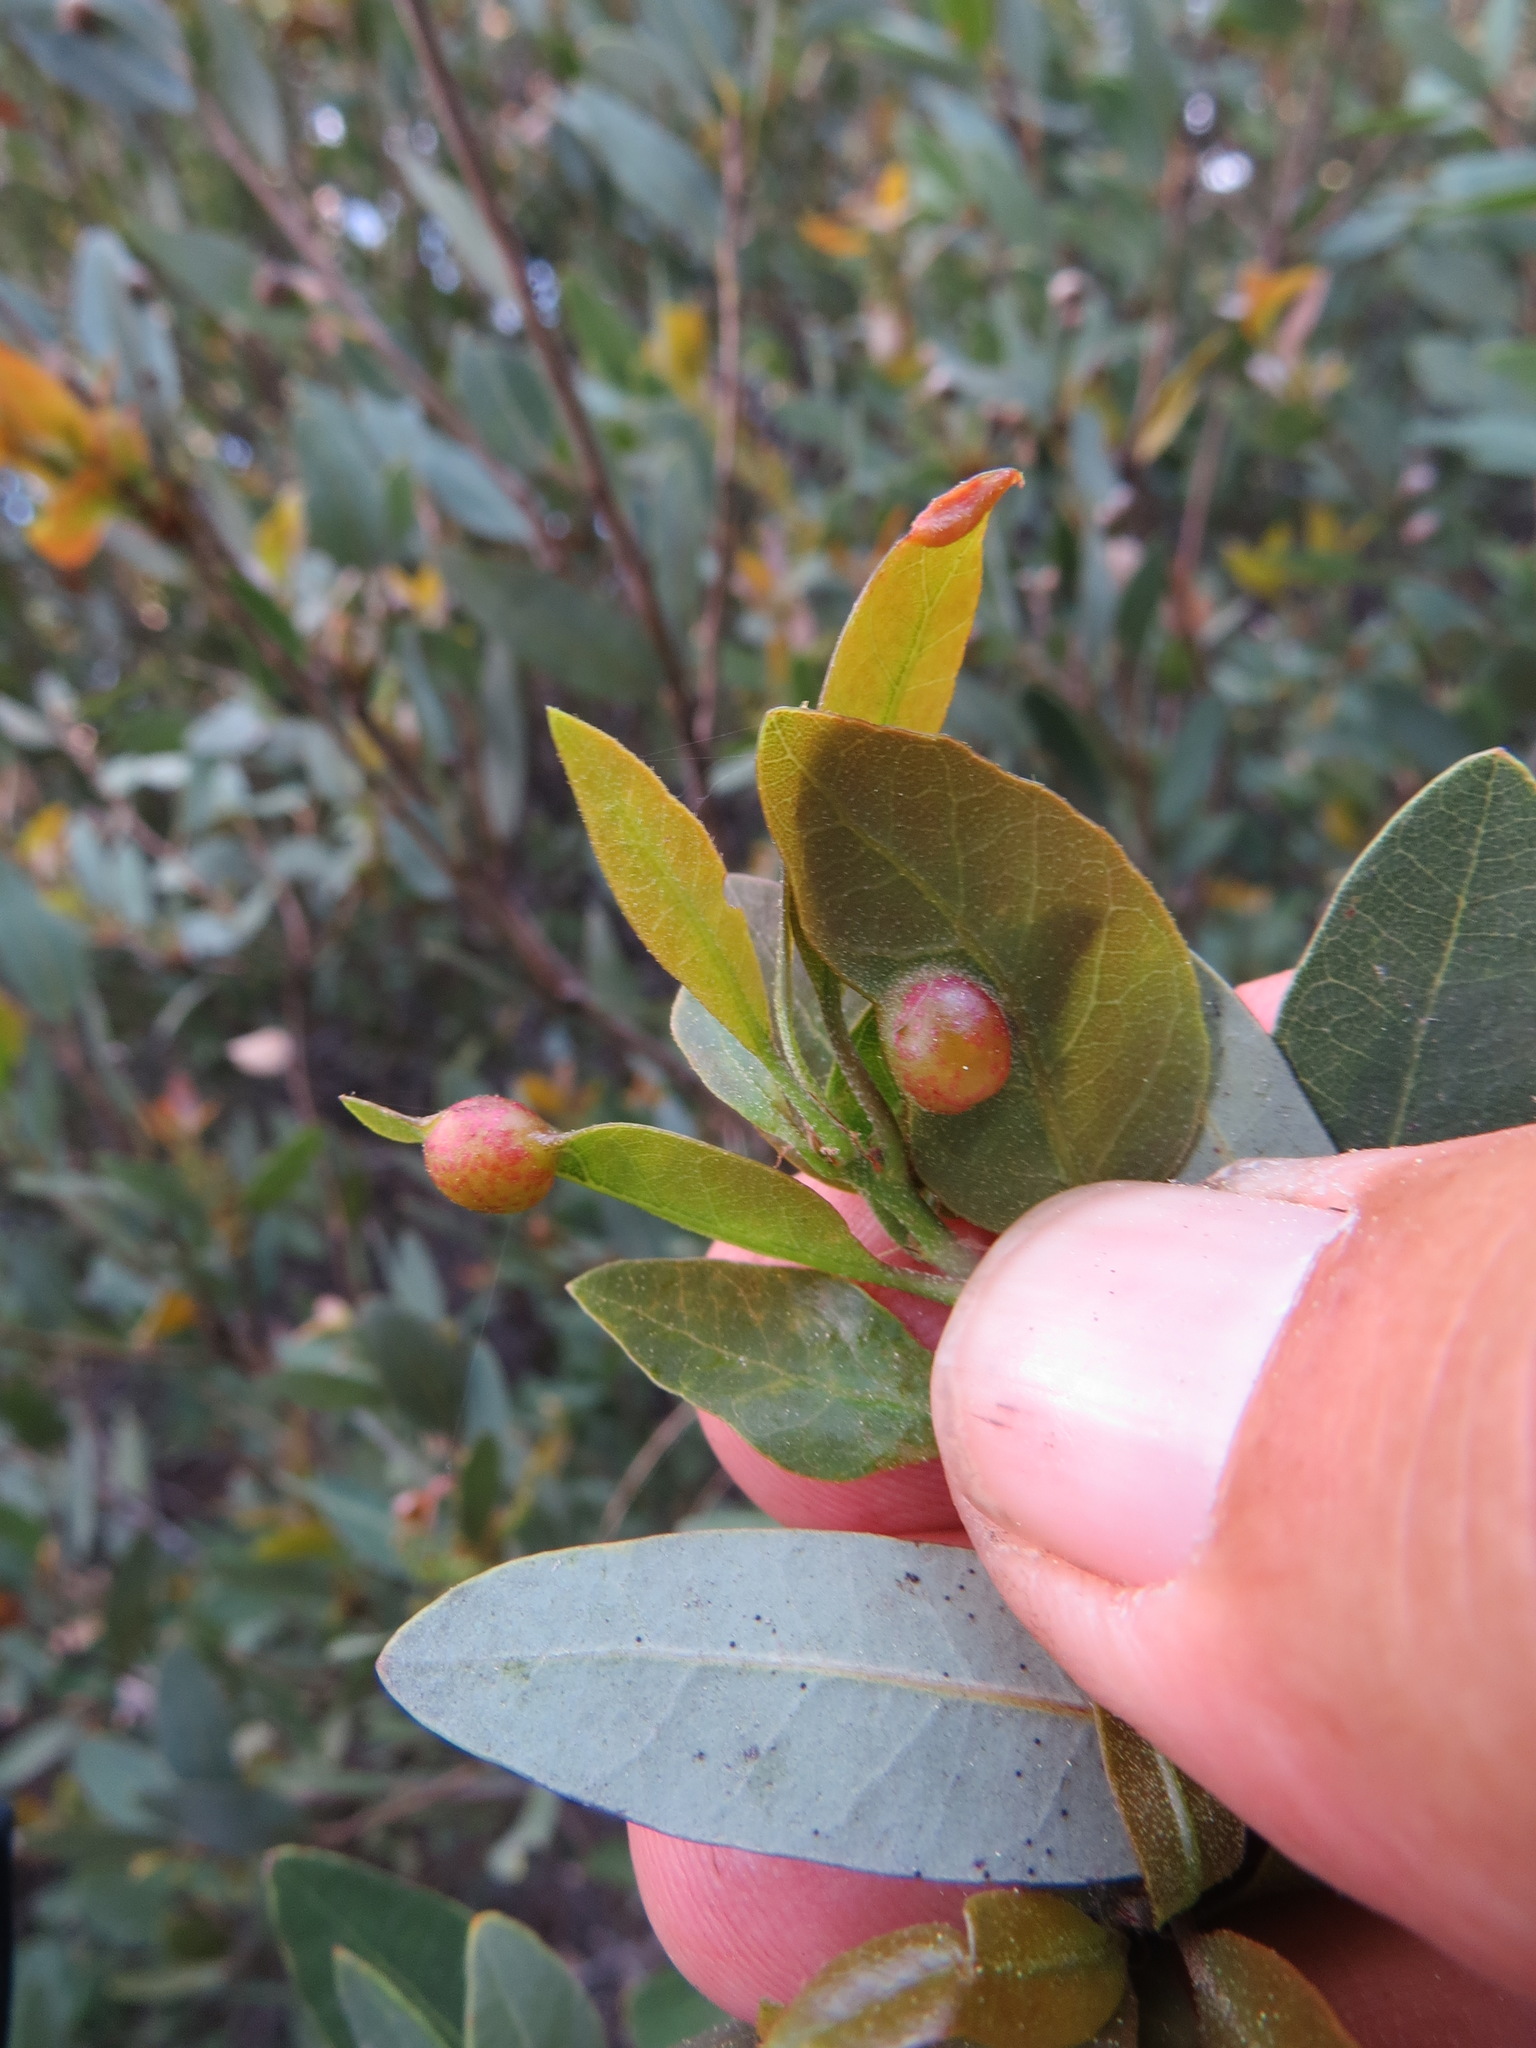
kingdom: Animalia
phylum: Arthropoda
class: Insecta
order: Hymenoptera
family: Cynipidae
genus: Heteroecus
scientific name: Heteroecus
